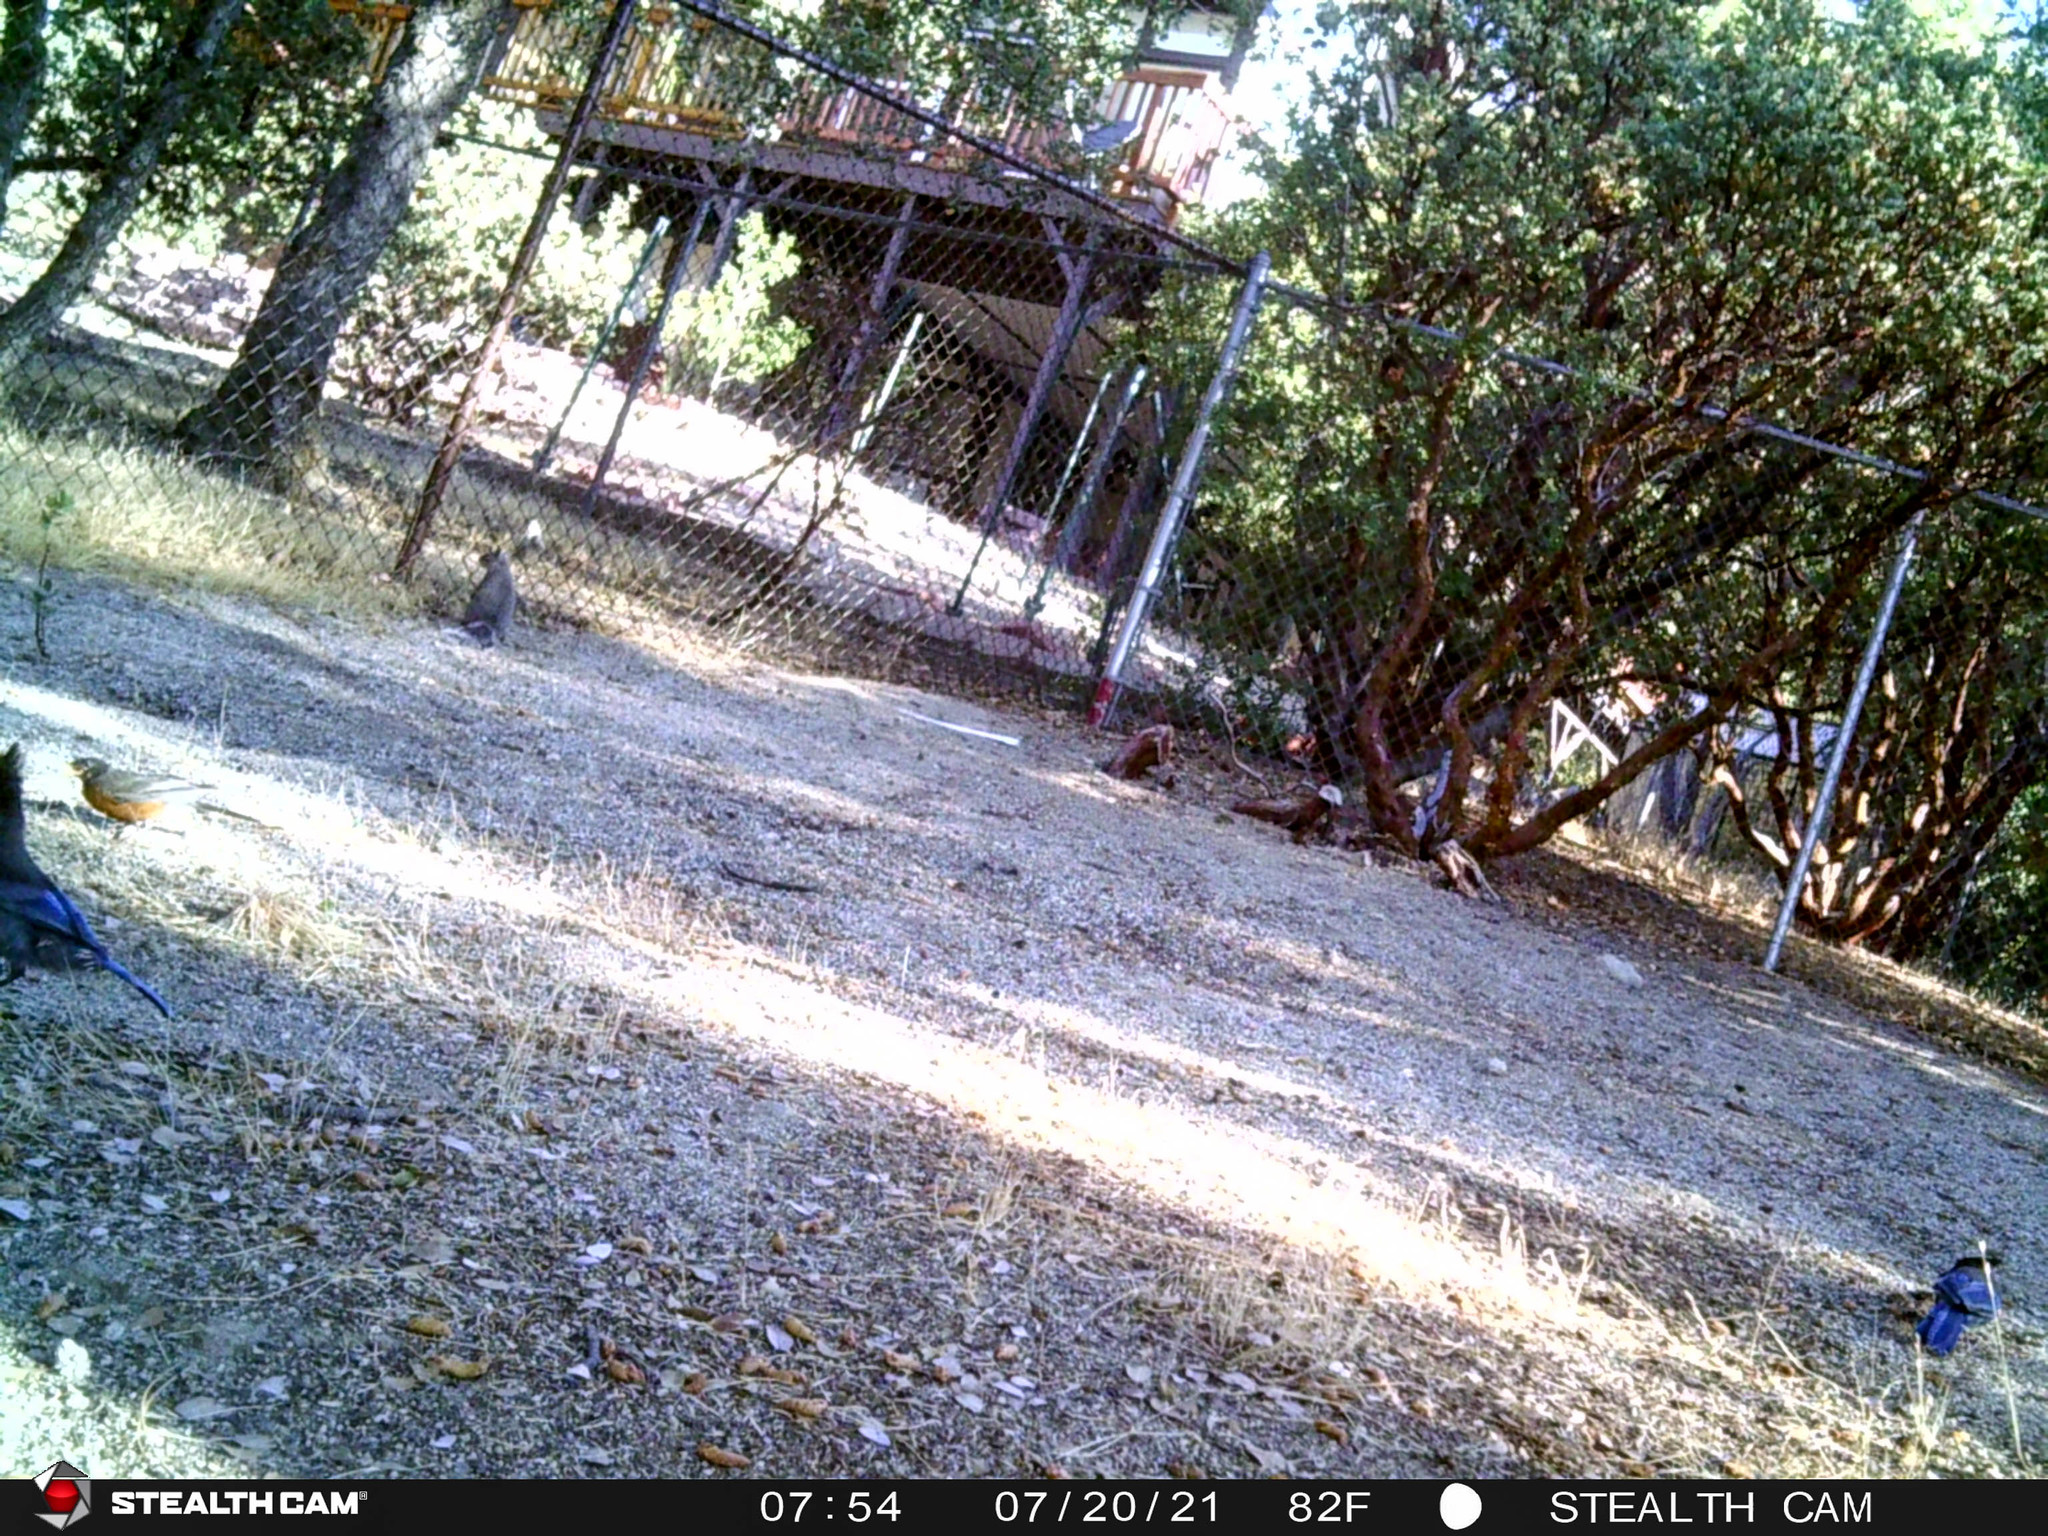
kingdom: Animalia
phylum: Chordata
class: Aves
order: Passeriformes
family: Corvidae
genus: Cyanocitta
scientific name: Cyanocitta stelleri
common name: Steller's jay
